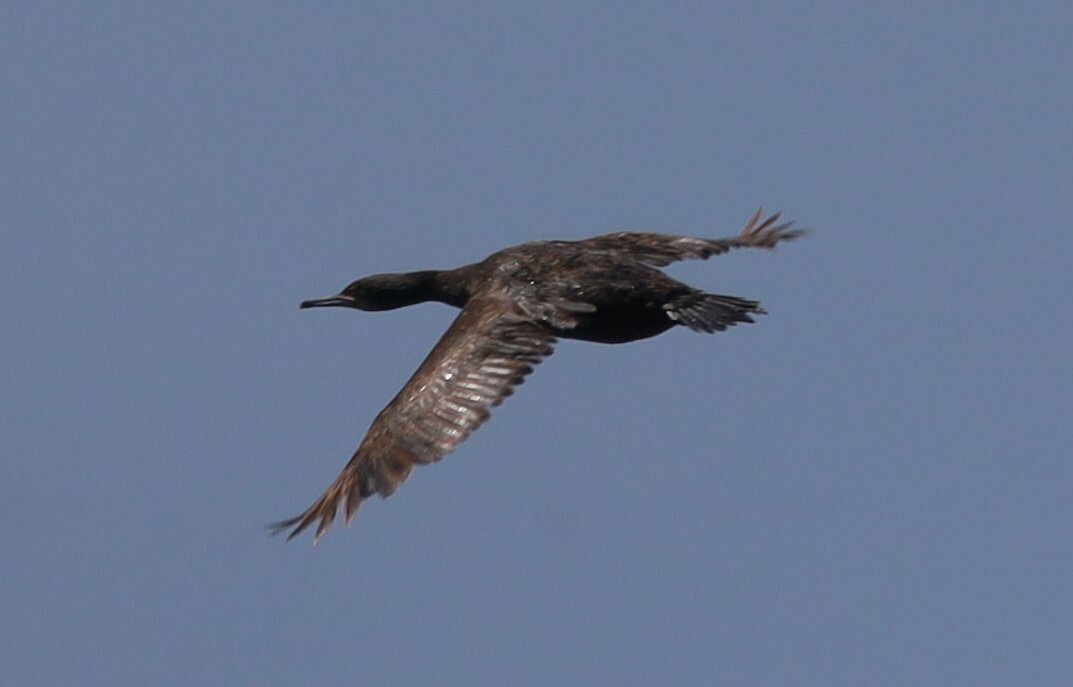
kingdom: Animalia
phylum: Chordata
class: Aves
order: Suliformes
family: Phalacrocoracidae
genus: Phalacrocorax
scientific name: Phalacrocorax capensis
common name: Cape cormorant
